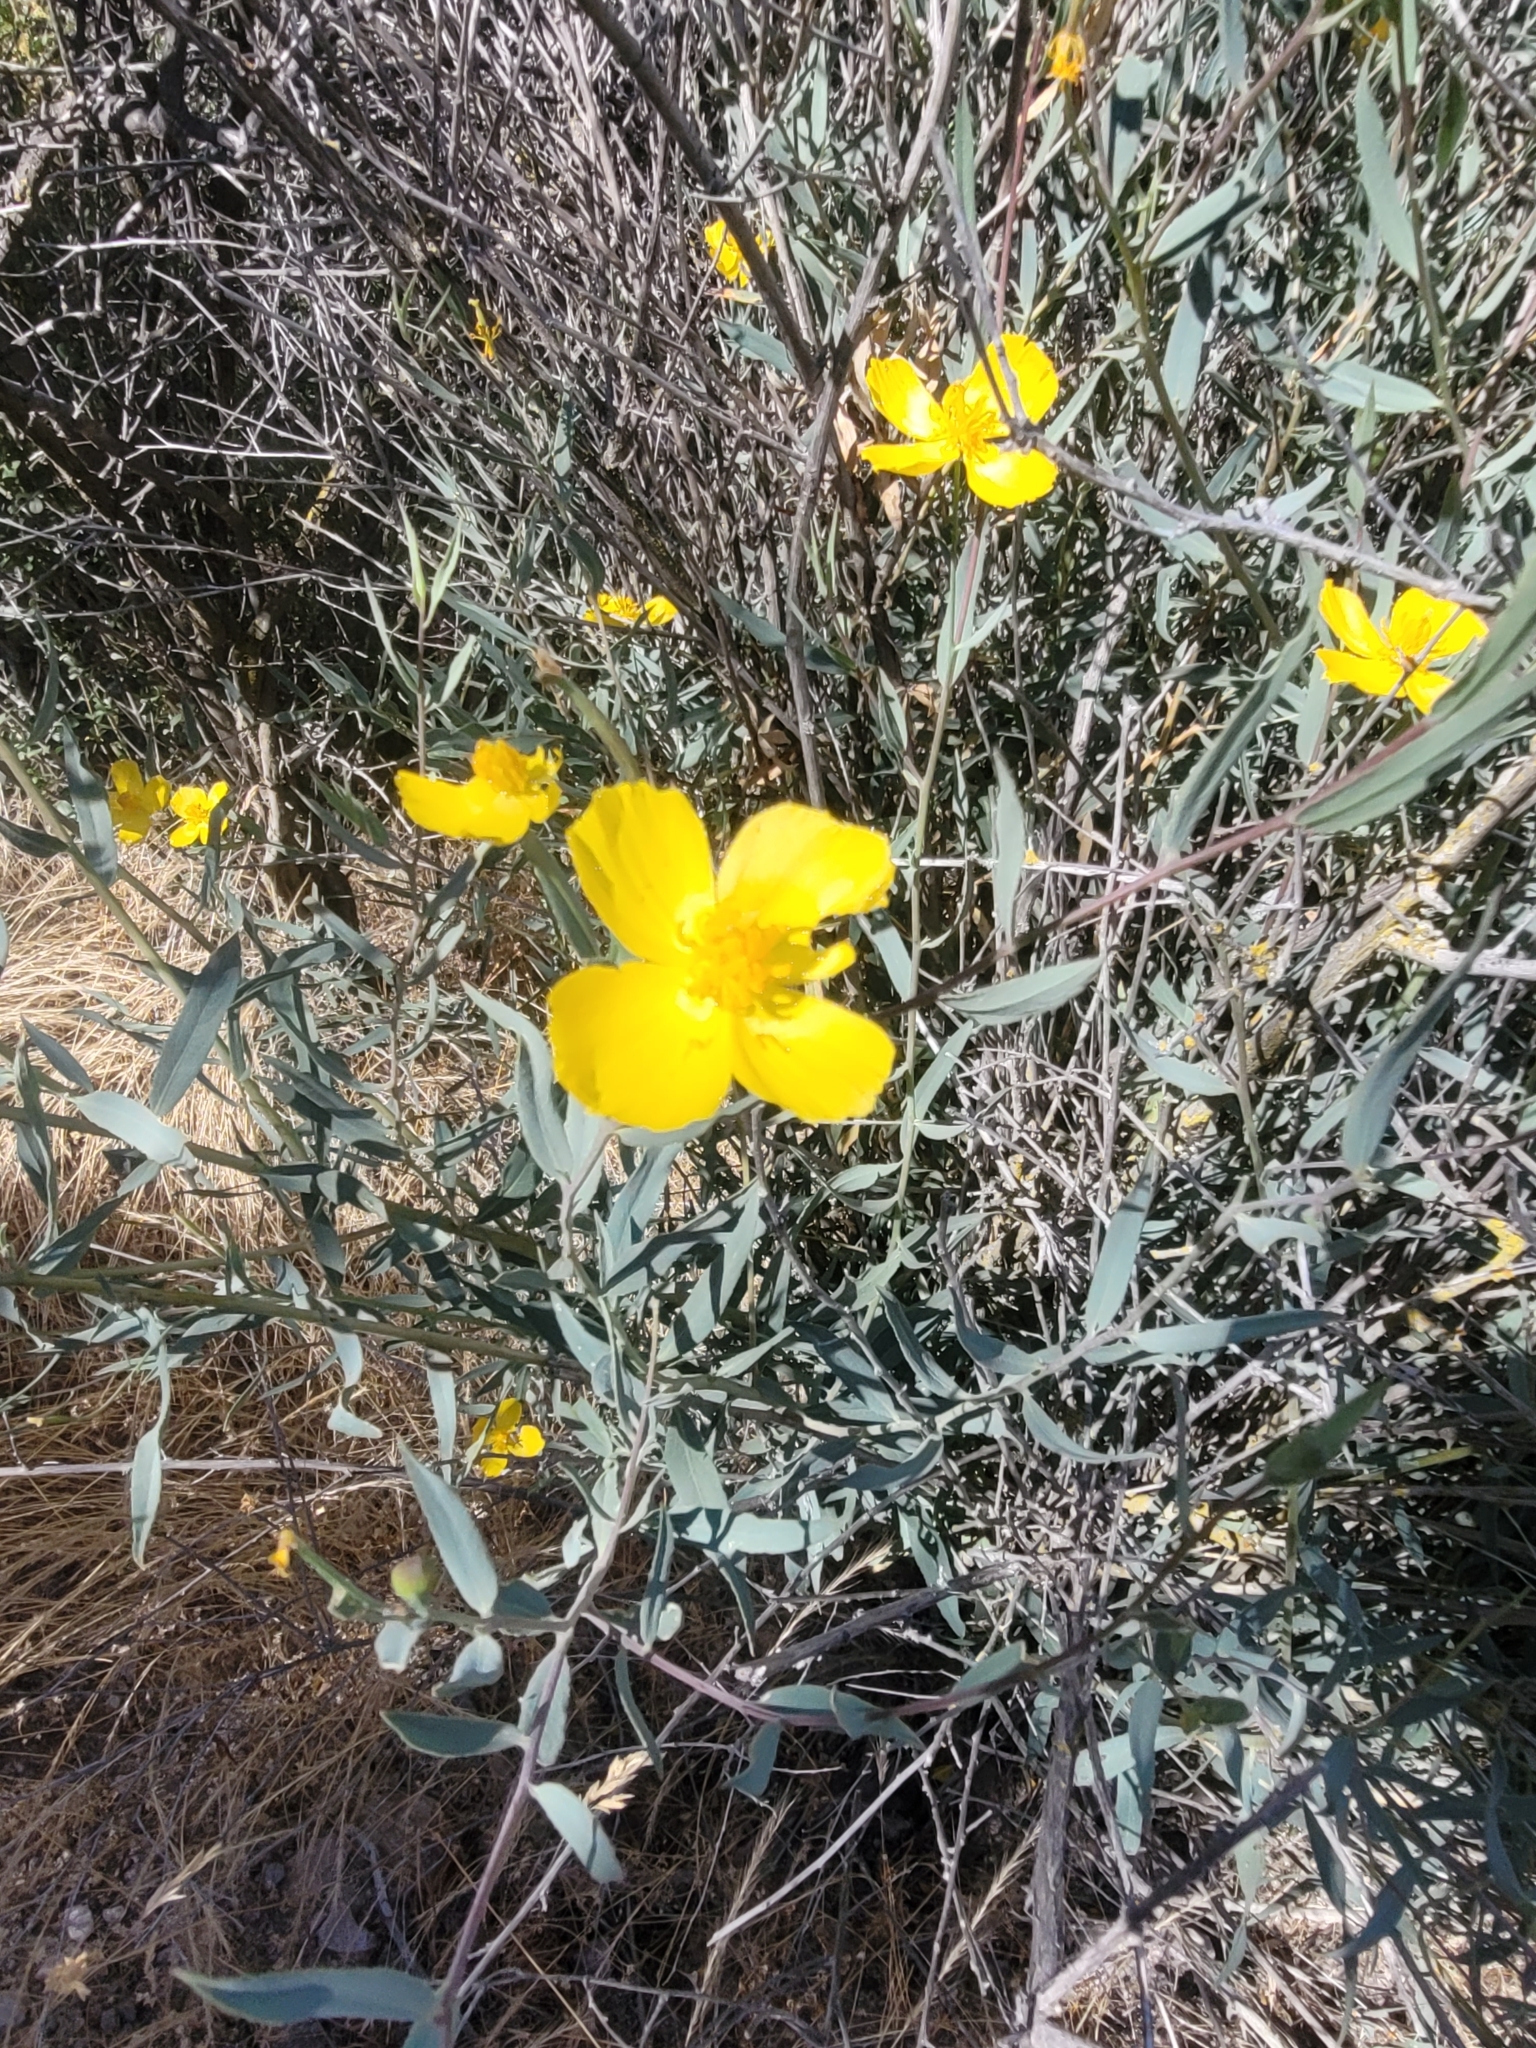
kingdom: Plantae
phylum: Tracheophyta
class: Magnoliopsida
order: Ranunculales
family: Papaveraceae
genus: Dendromecon
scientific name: Dendromecon rigida
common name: Tree poppy
